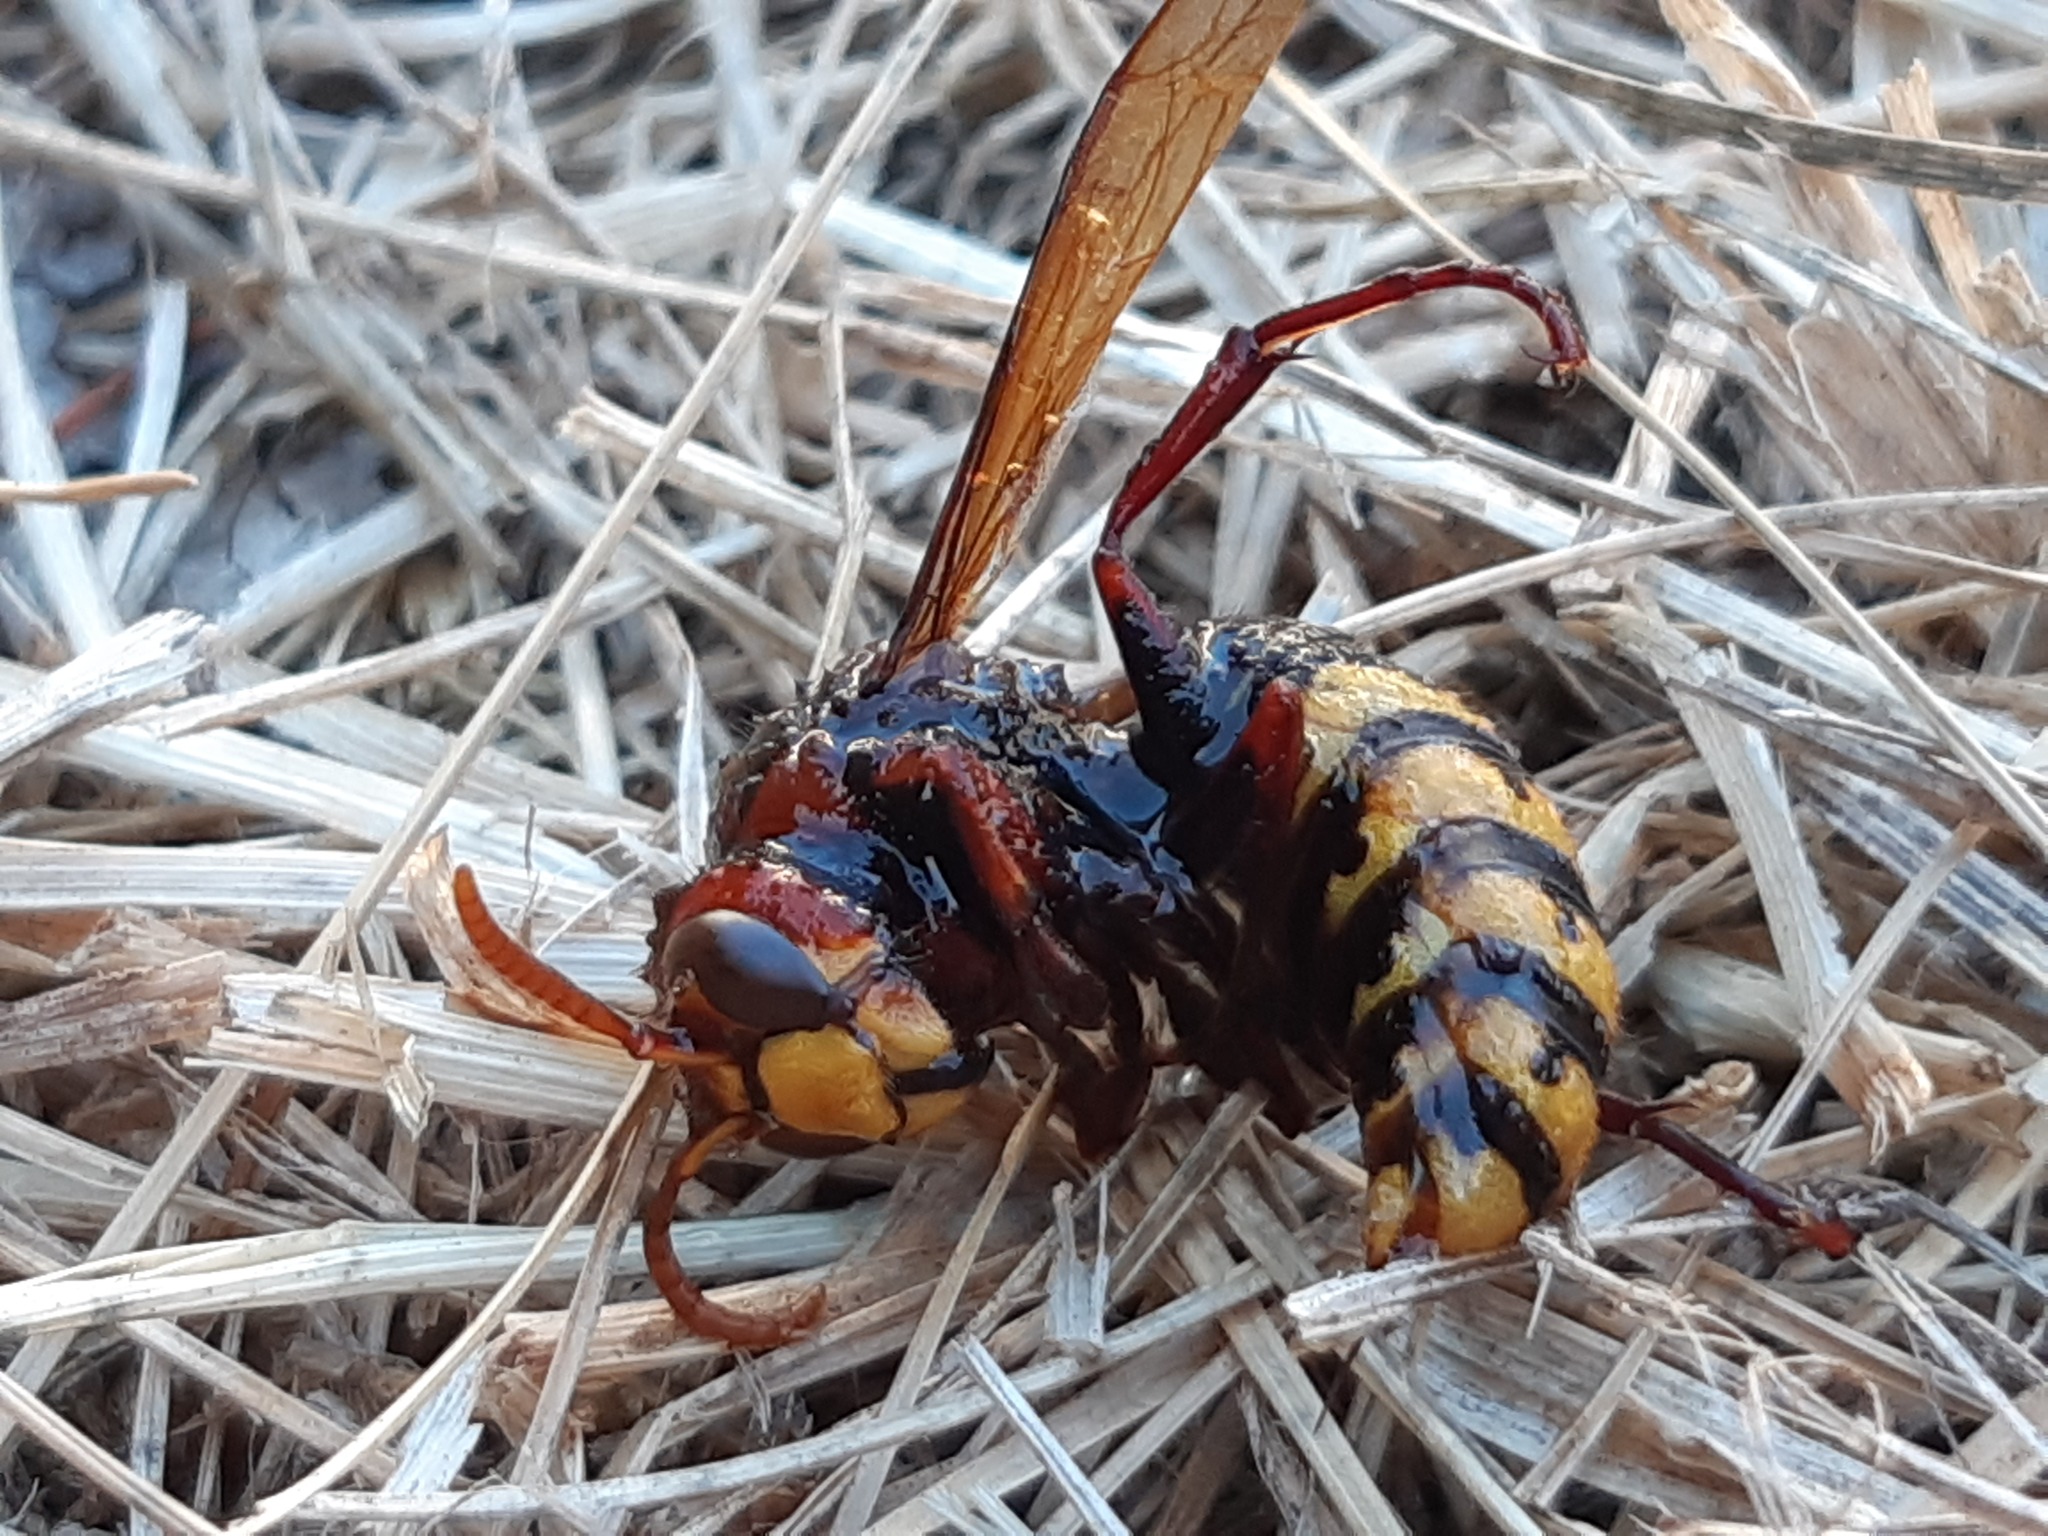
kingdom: Animalia
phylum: Arthropoda
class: Insecta
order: Hymenoptera
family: Vespidae
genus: Vespa
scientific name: Vespa crabro
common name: Hornet
